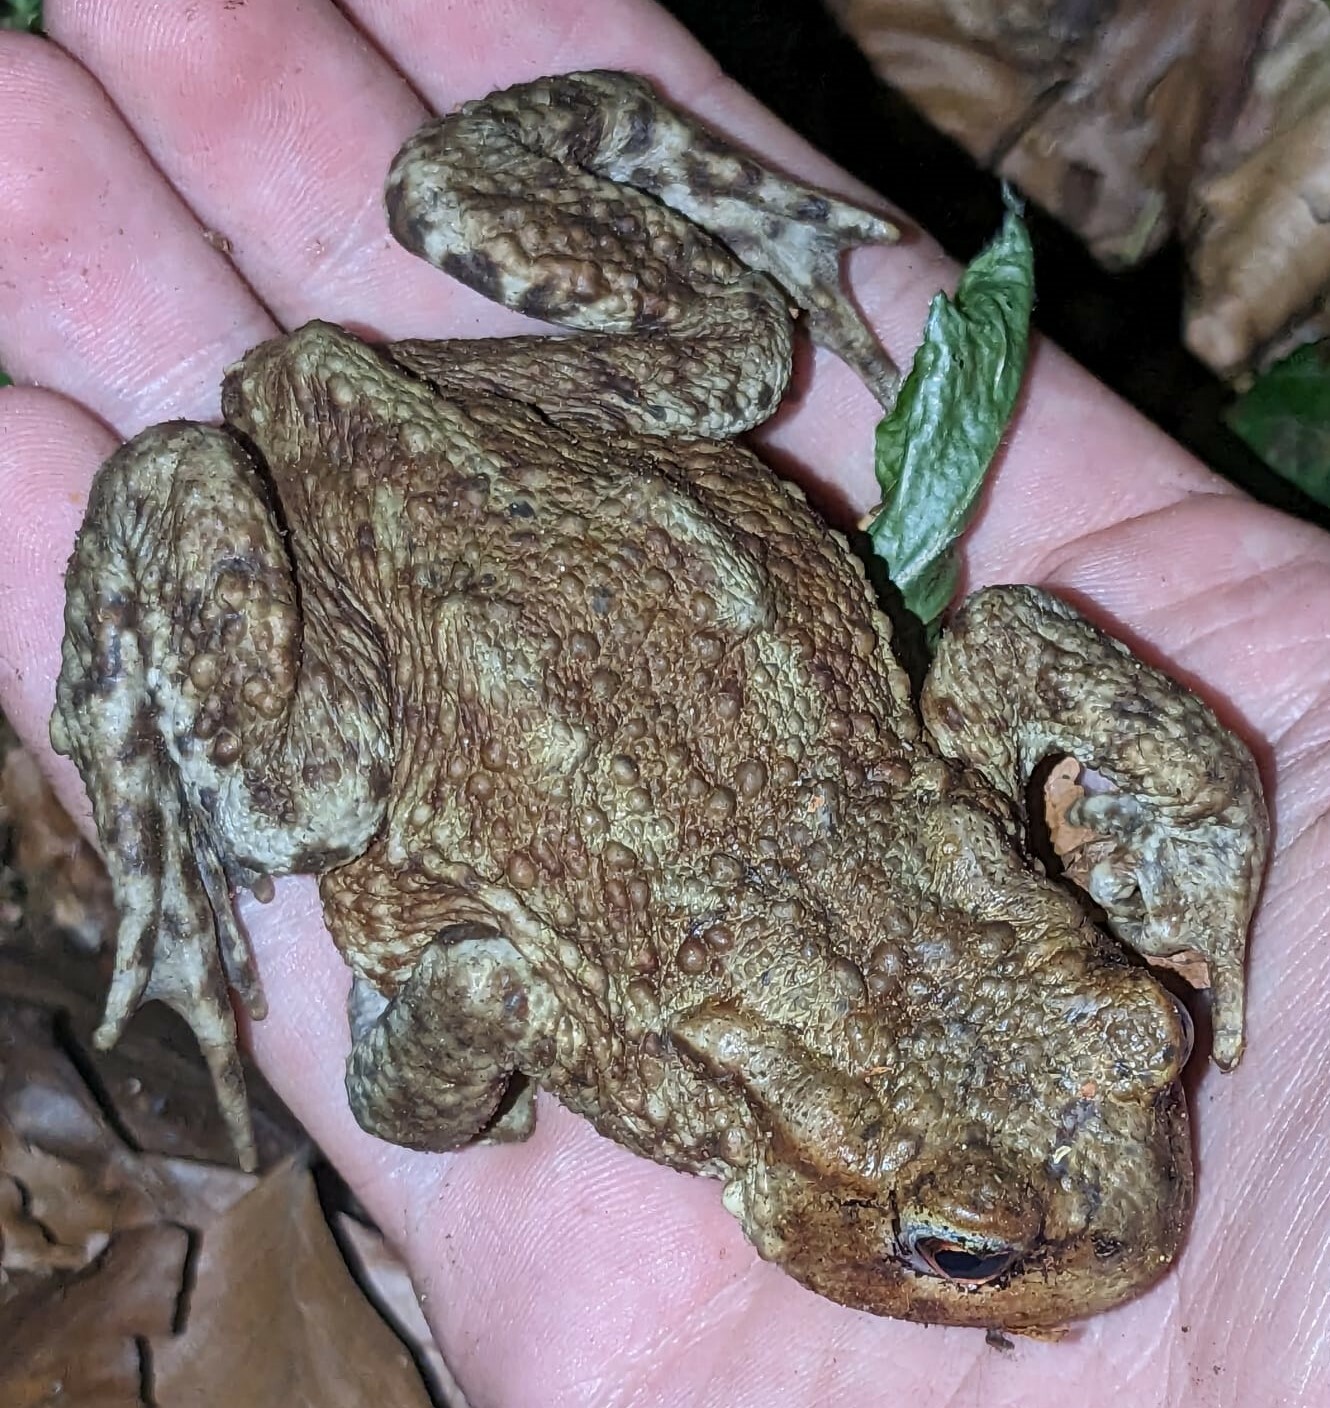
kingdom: Animalia
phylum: Chordata
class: Amphibia
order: Anura
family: Bufonidae
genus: Bufo
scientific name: Bufo bufo
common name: Common toad
